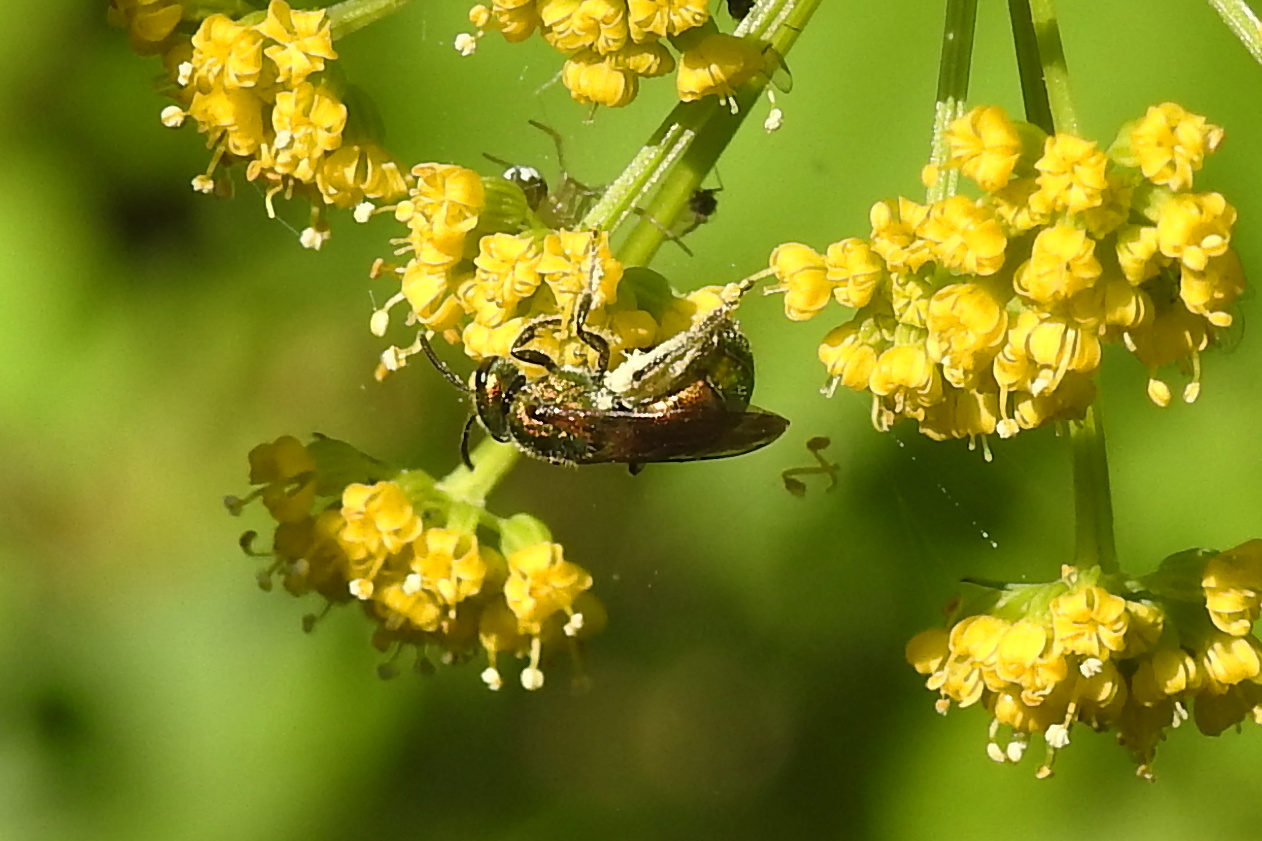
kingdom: Animalia
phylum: Arthropoda
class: Insecta
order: Hymenoptera
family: Halictidae
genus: Augochlora
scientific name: Augochlora pura
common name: Pure green sweat bee
